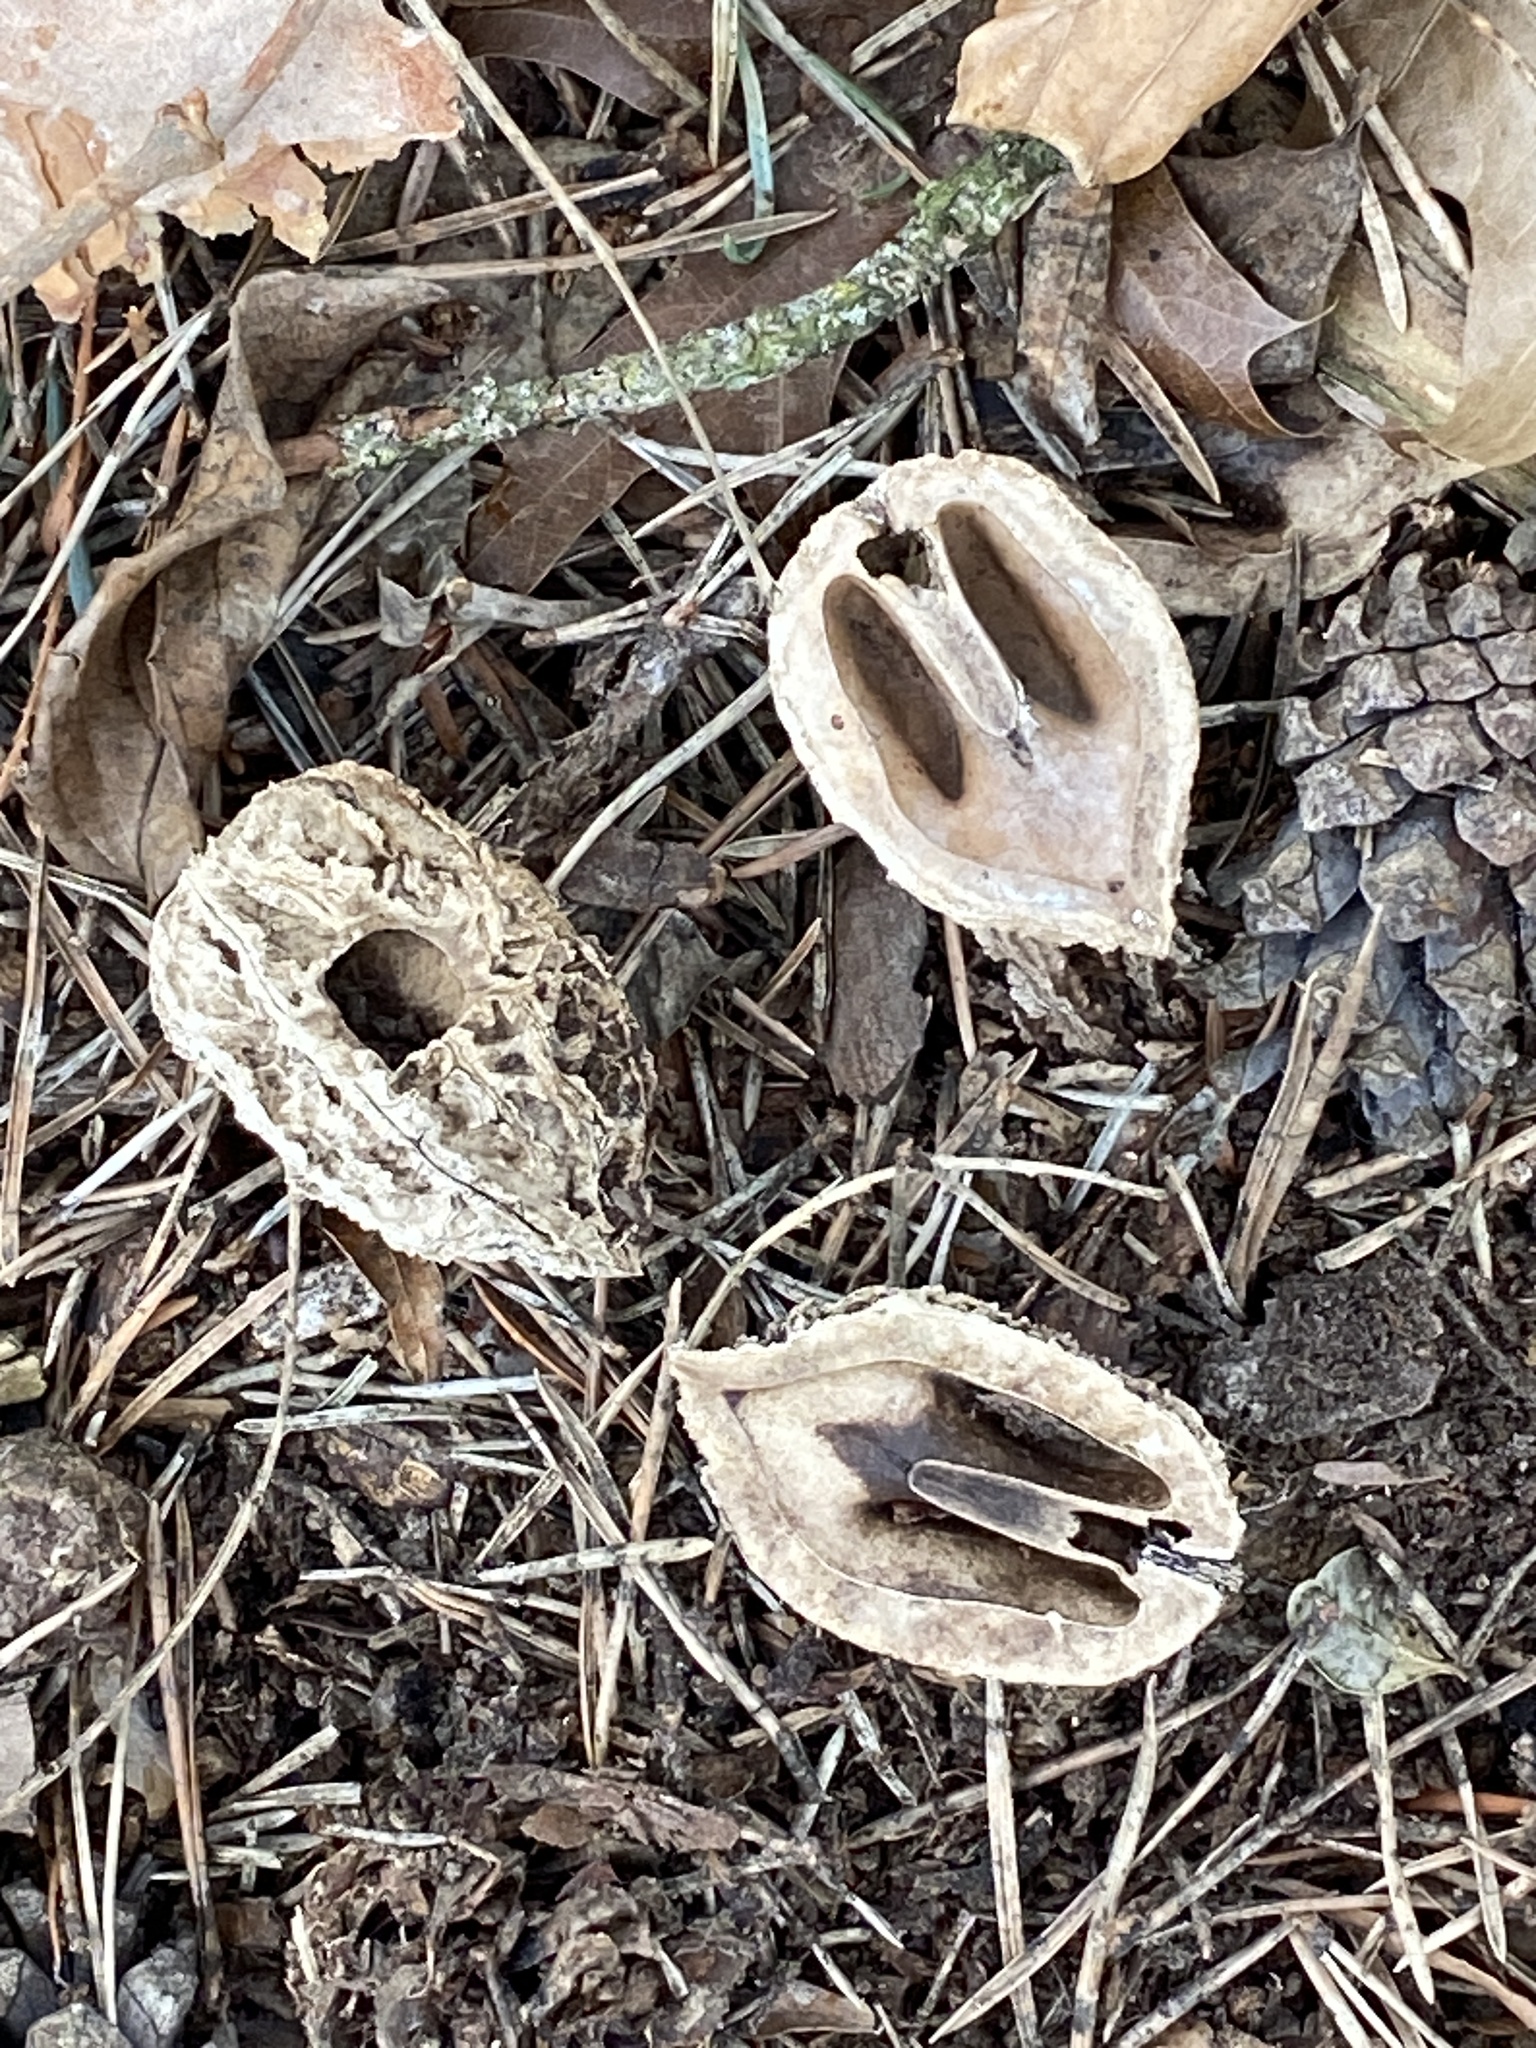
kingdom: Plantae
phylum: Tracheophyta
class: Magnoliopsida
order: Fagales
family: Juglandaceae
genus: Juglans
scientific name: Juglans cinerea
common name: Butternut
